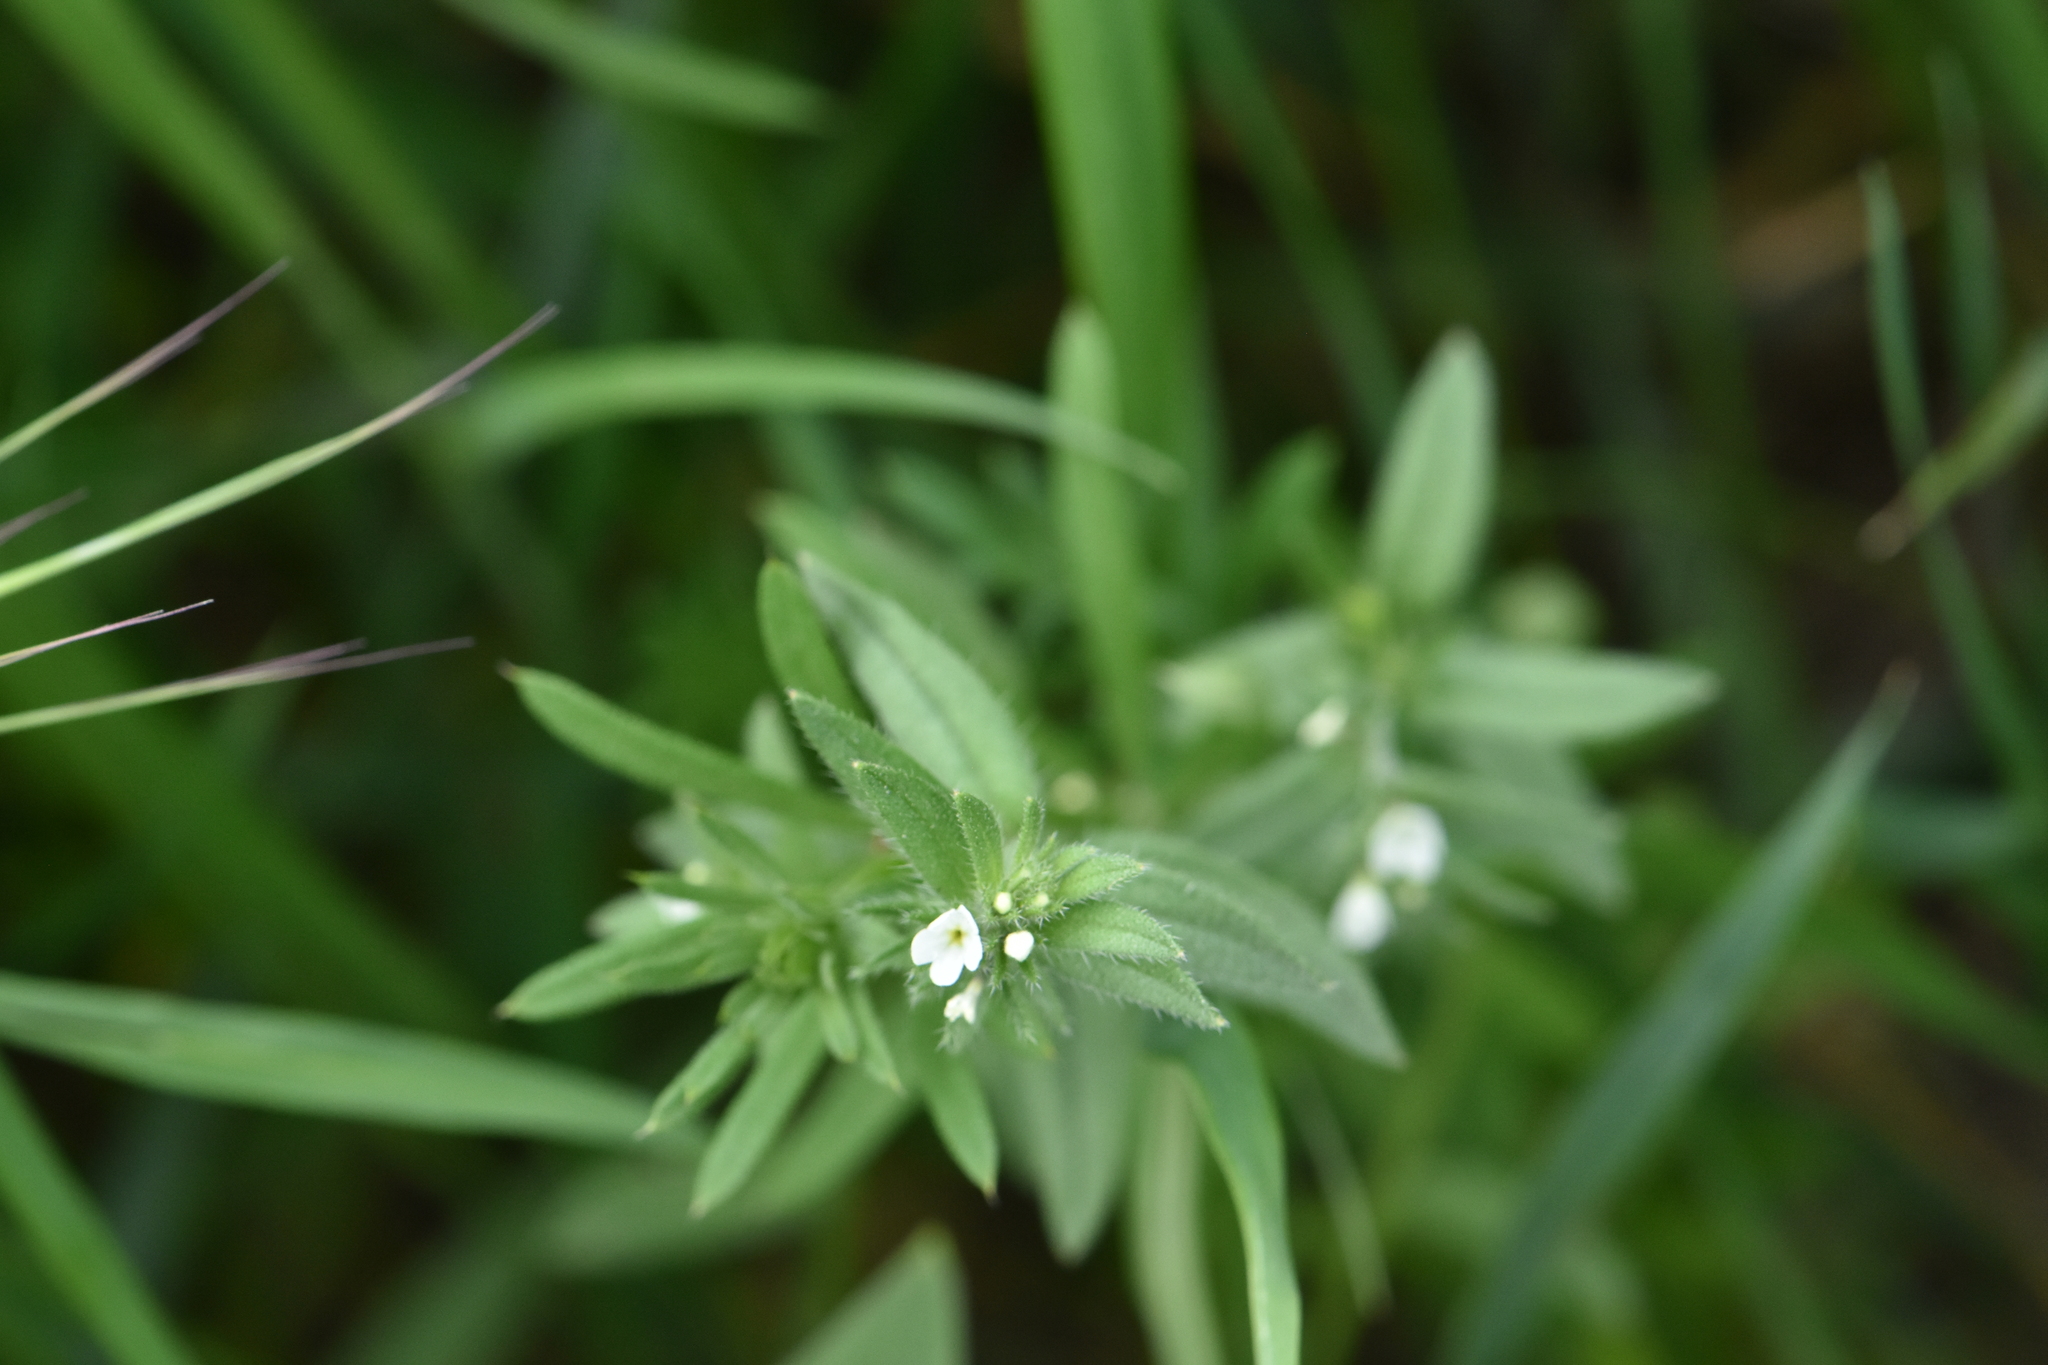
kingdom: Plantae
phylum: Tracheophyta
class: Magnoliopsida
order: Boraginales
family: Boraginaceae
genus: Buglossoides
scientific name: Buglossoides arvensis
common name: Corn gromwell
